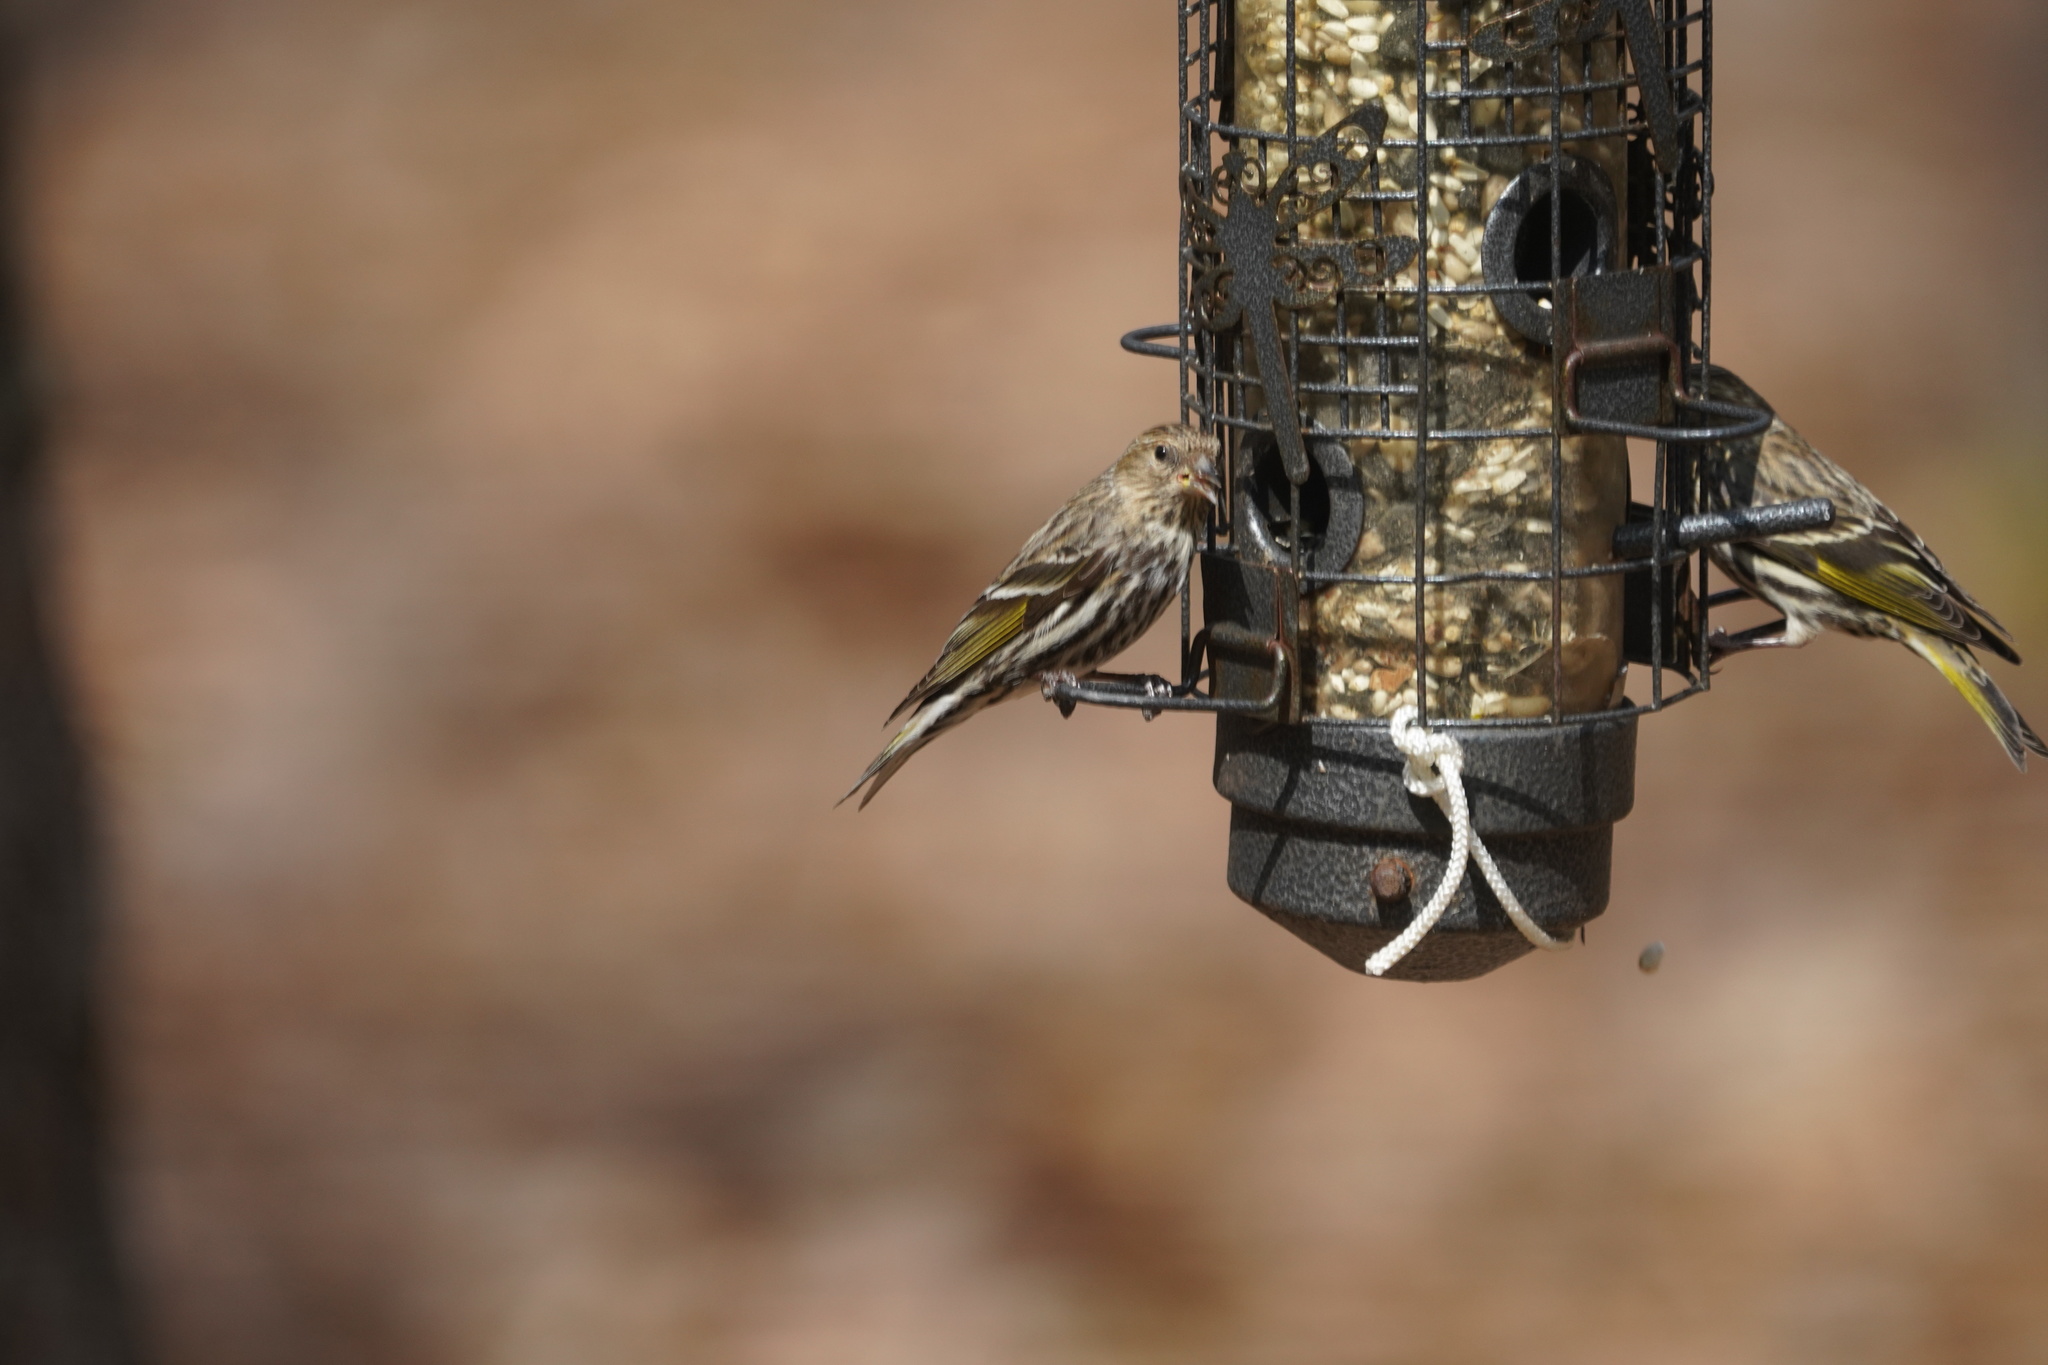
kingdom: Animalia
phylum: Chordata
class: Aves
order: Passeriformes
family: Fringillidae
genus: Spinus
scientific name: Spinus pinus
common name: Pine siskin
